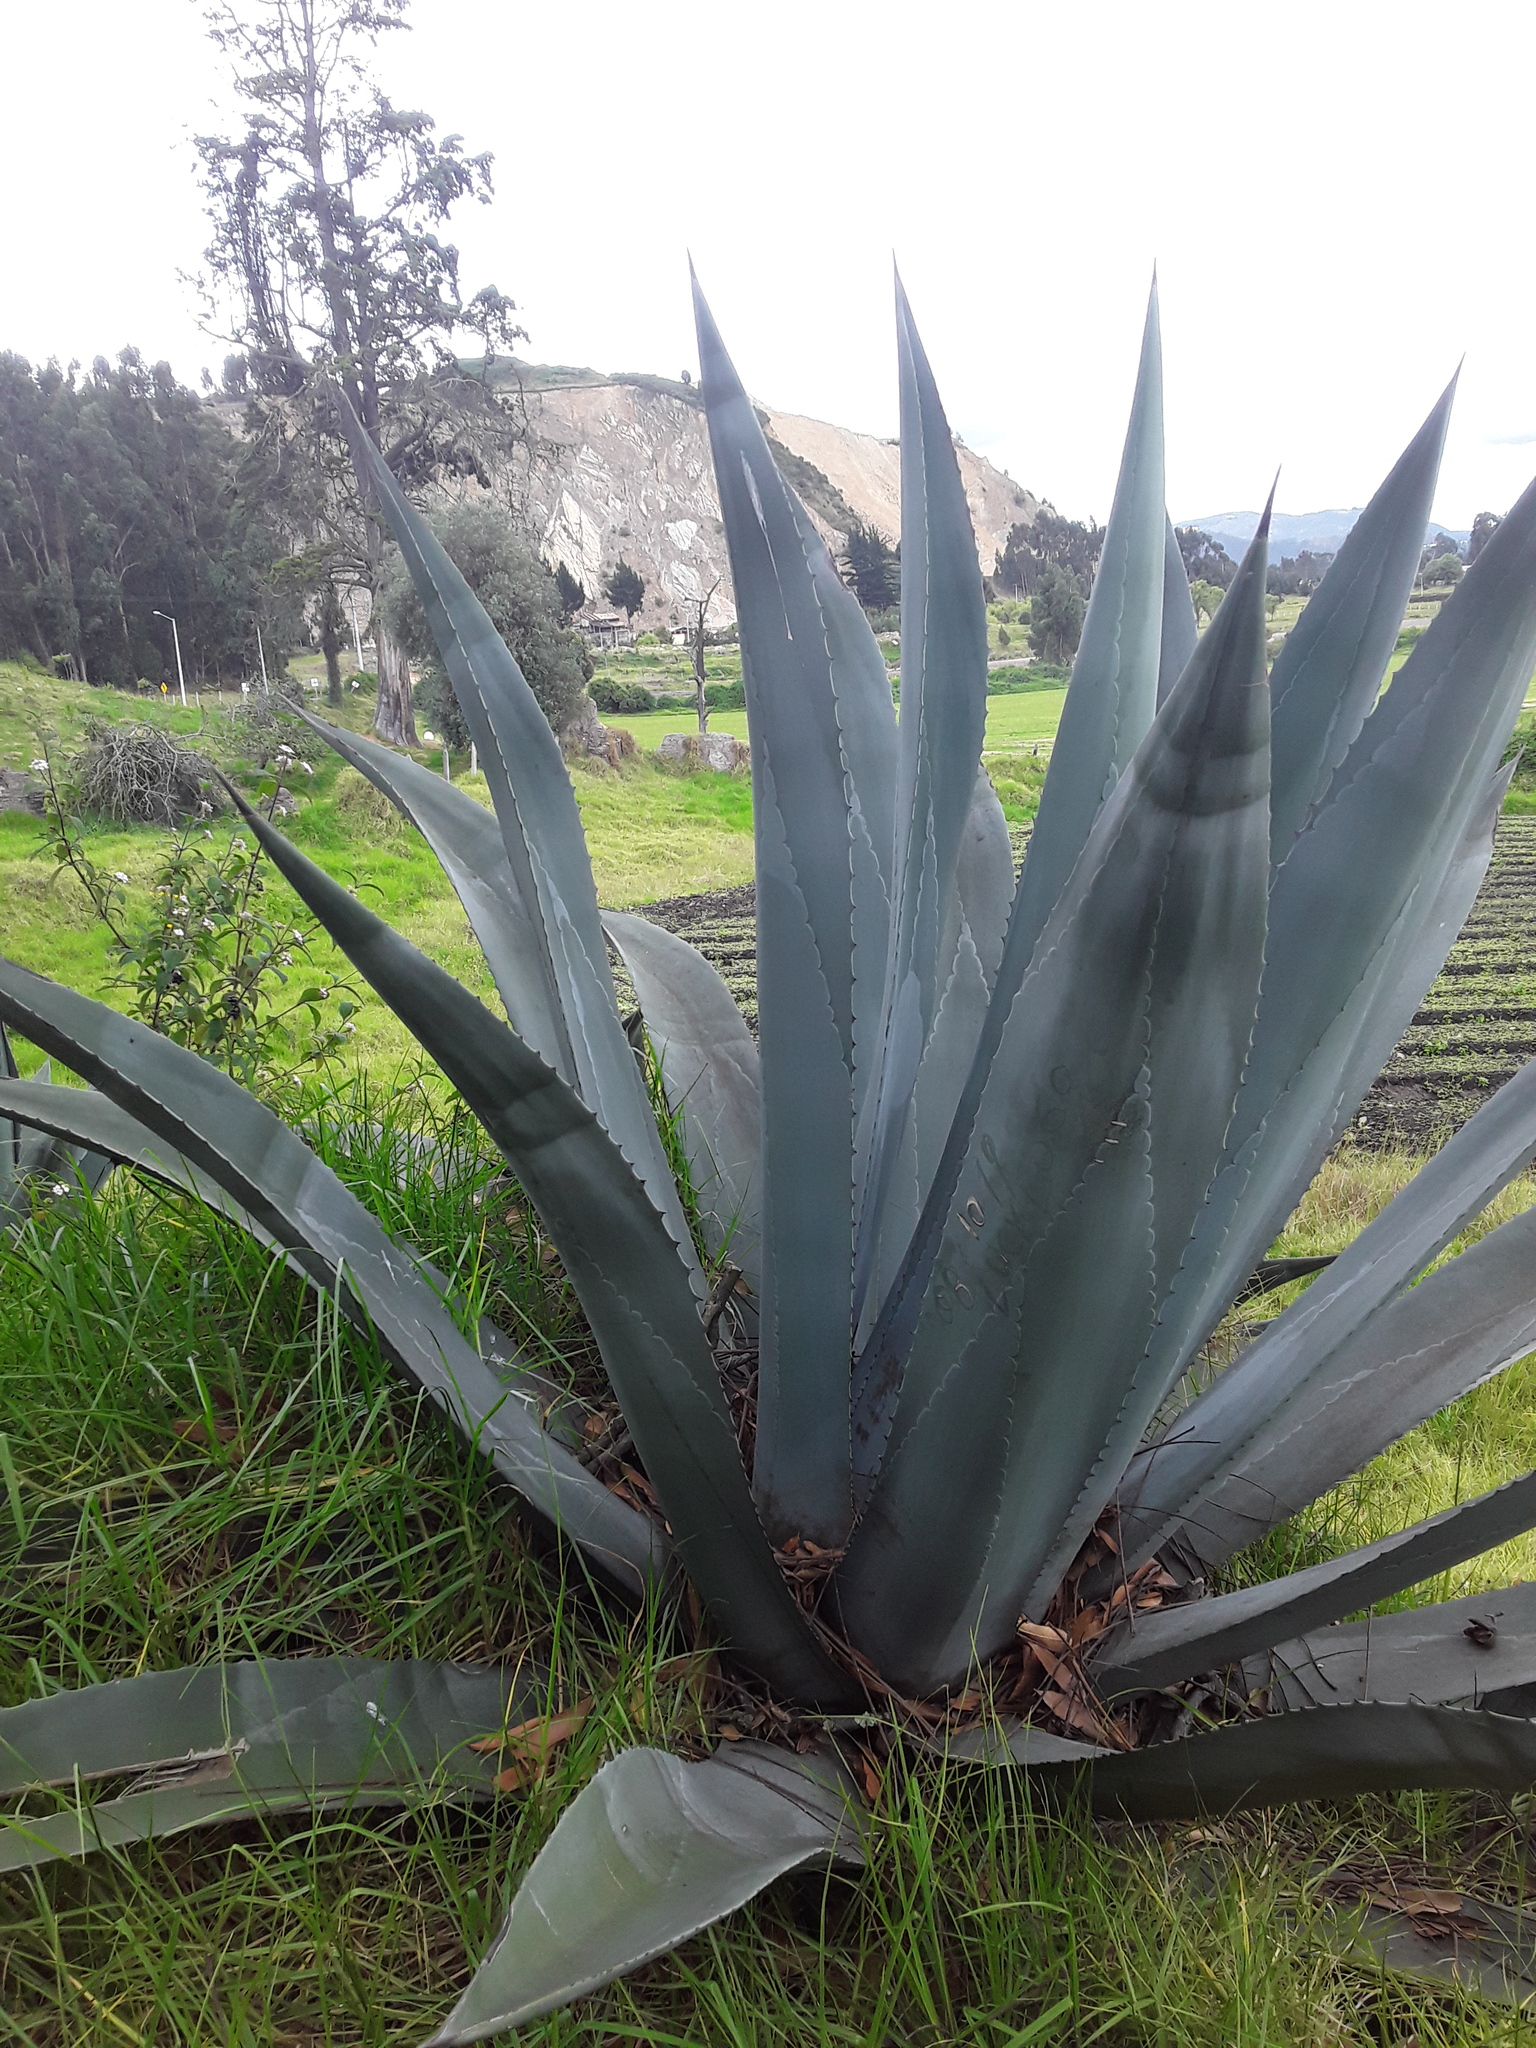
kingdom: Plantae
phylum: Tracheophyta
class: Liliopsida
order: Asparagales
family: Asparagaceae
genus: Agave
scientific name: Agave americana
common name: Centuryplant
